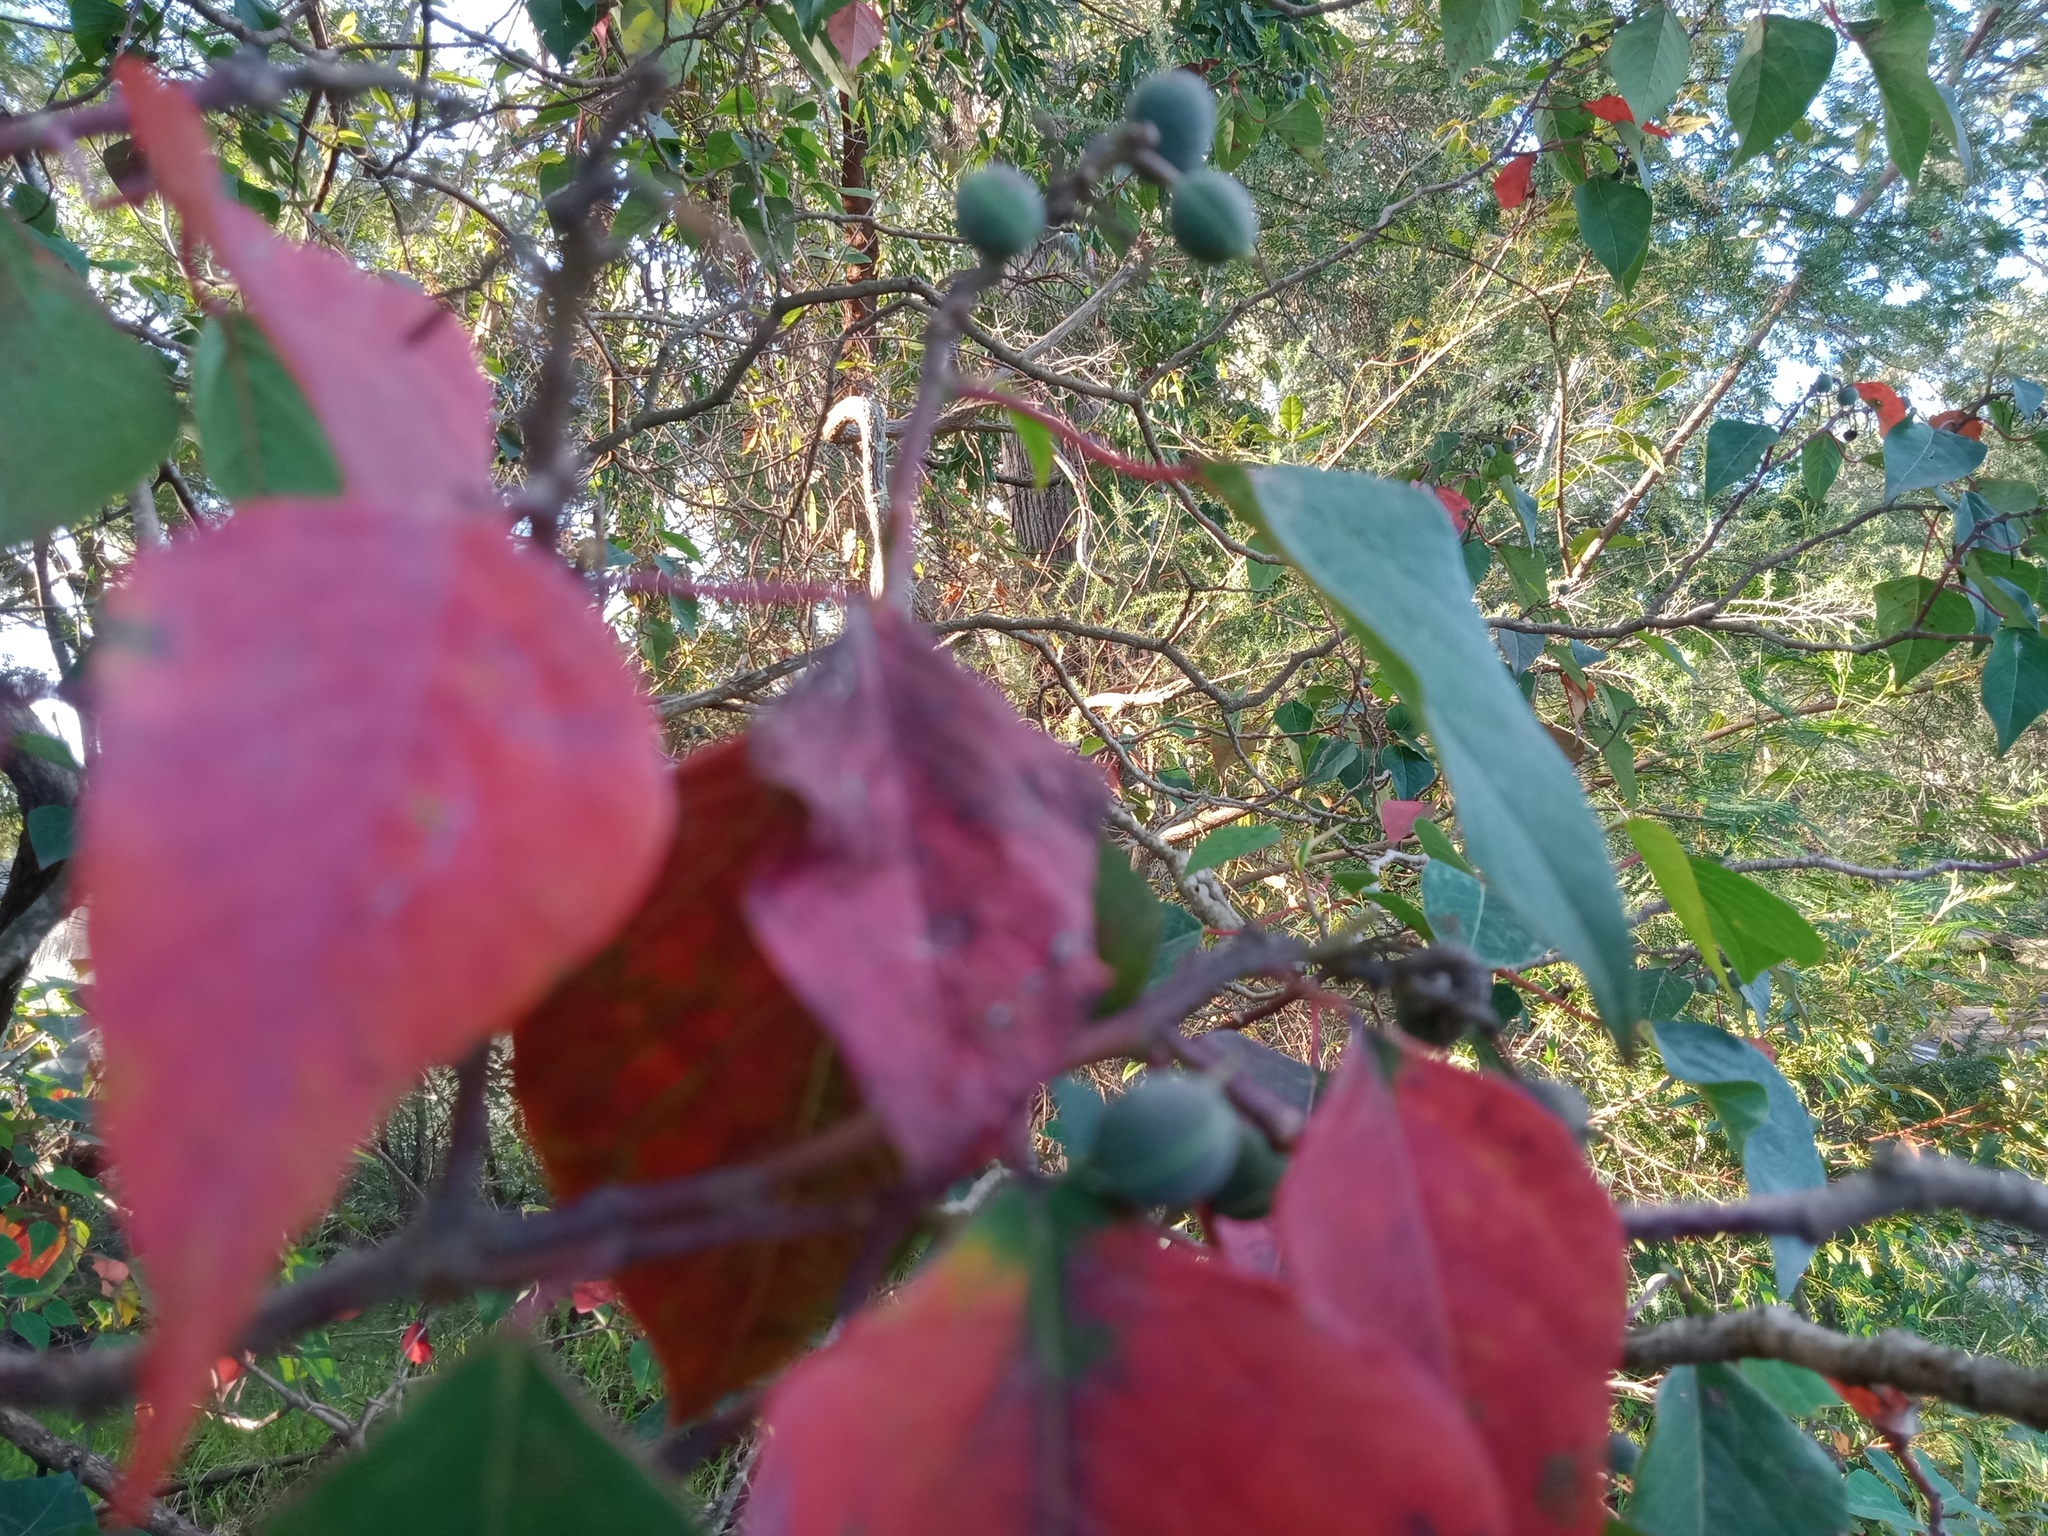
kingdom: Plantae
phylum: Tracheophyta
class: Magnoliopsida
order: Malpighiales
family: Euphorbiaceae
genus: Homalanthus
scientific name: Homalanthus populifolius
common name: Queensland poplar
